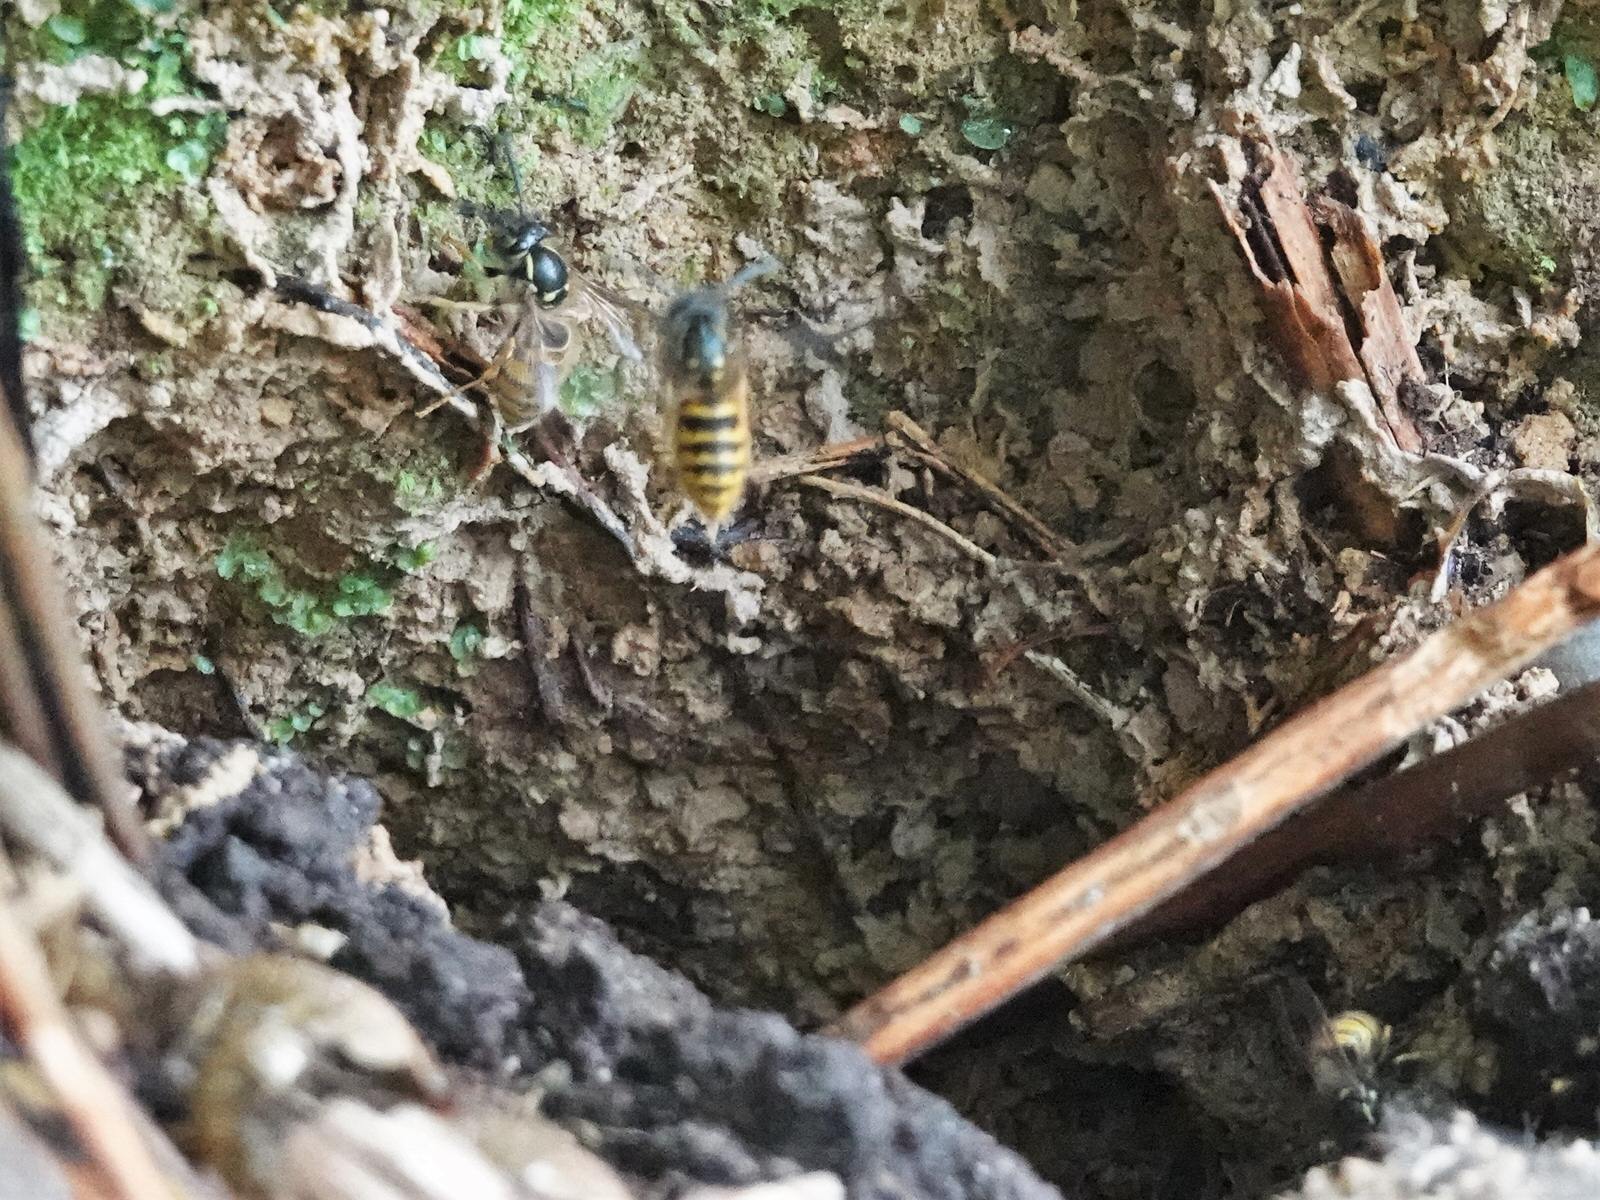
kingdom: Animalia
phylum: Arthropoda
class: Insecta
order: Hymenoptera
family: Vespidae
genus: Vespula
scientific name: Vespula vulgaris
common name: Common wasp
